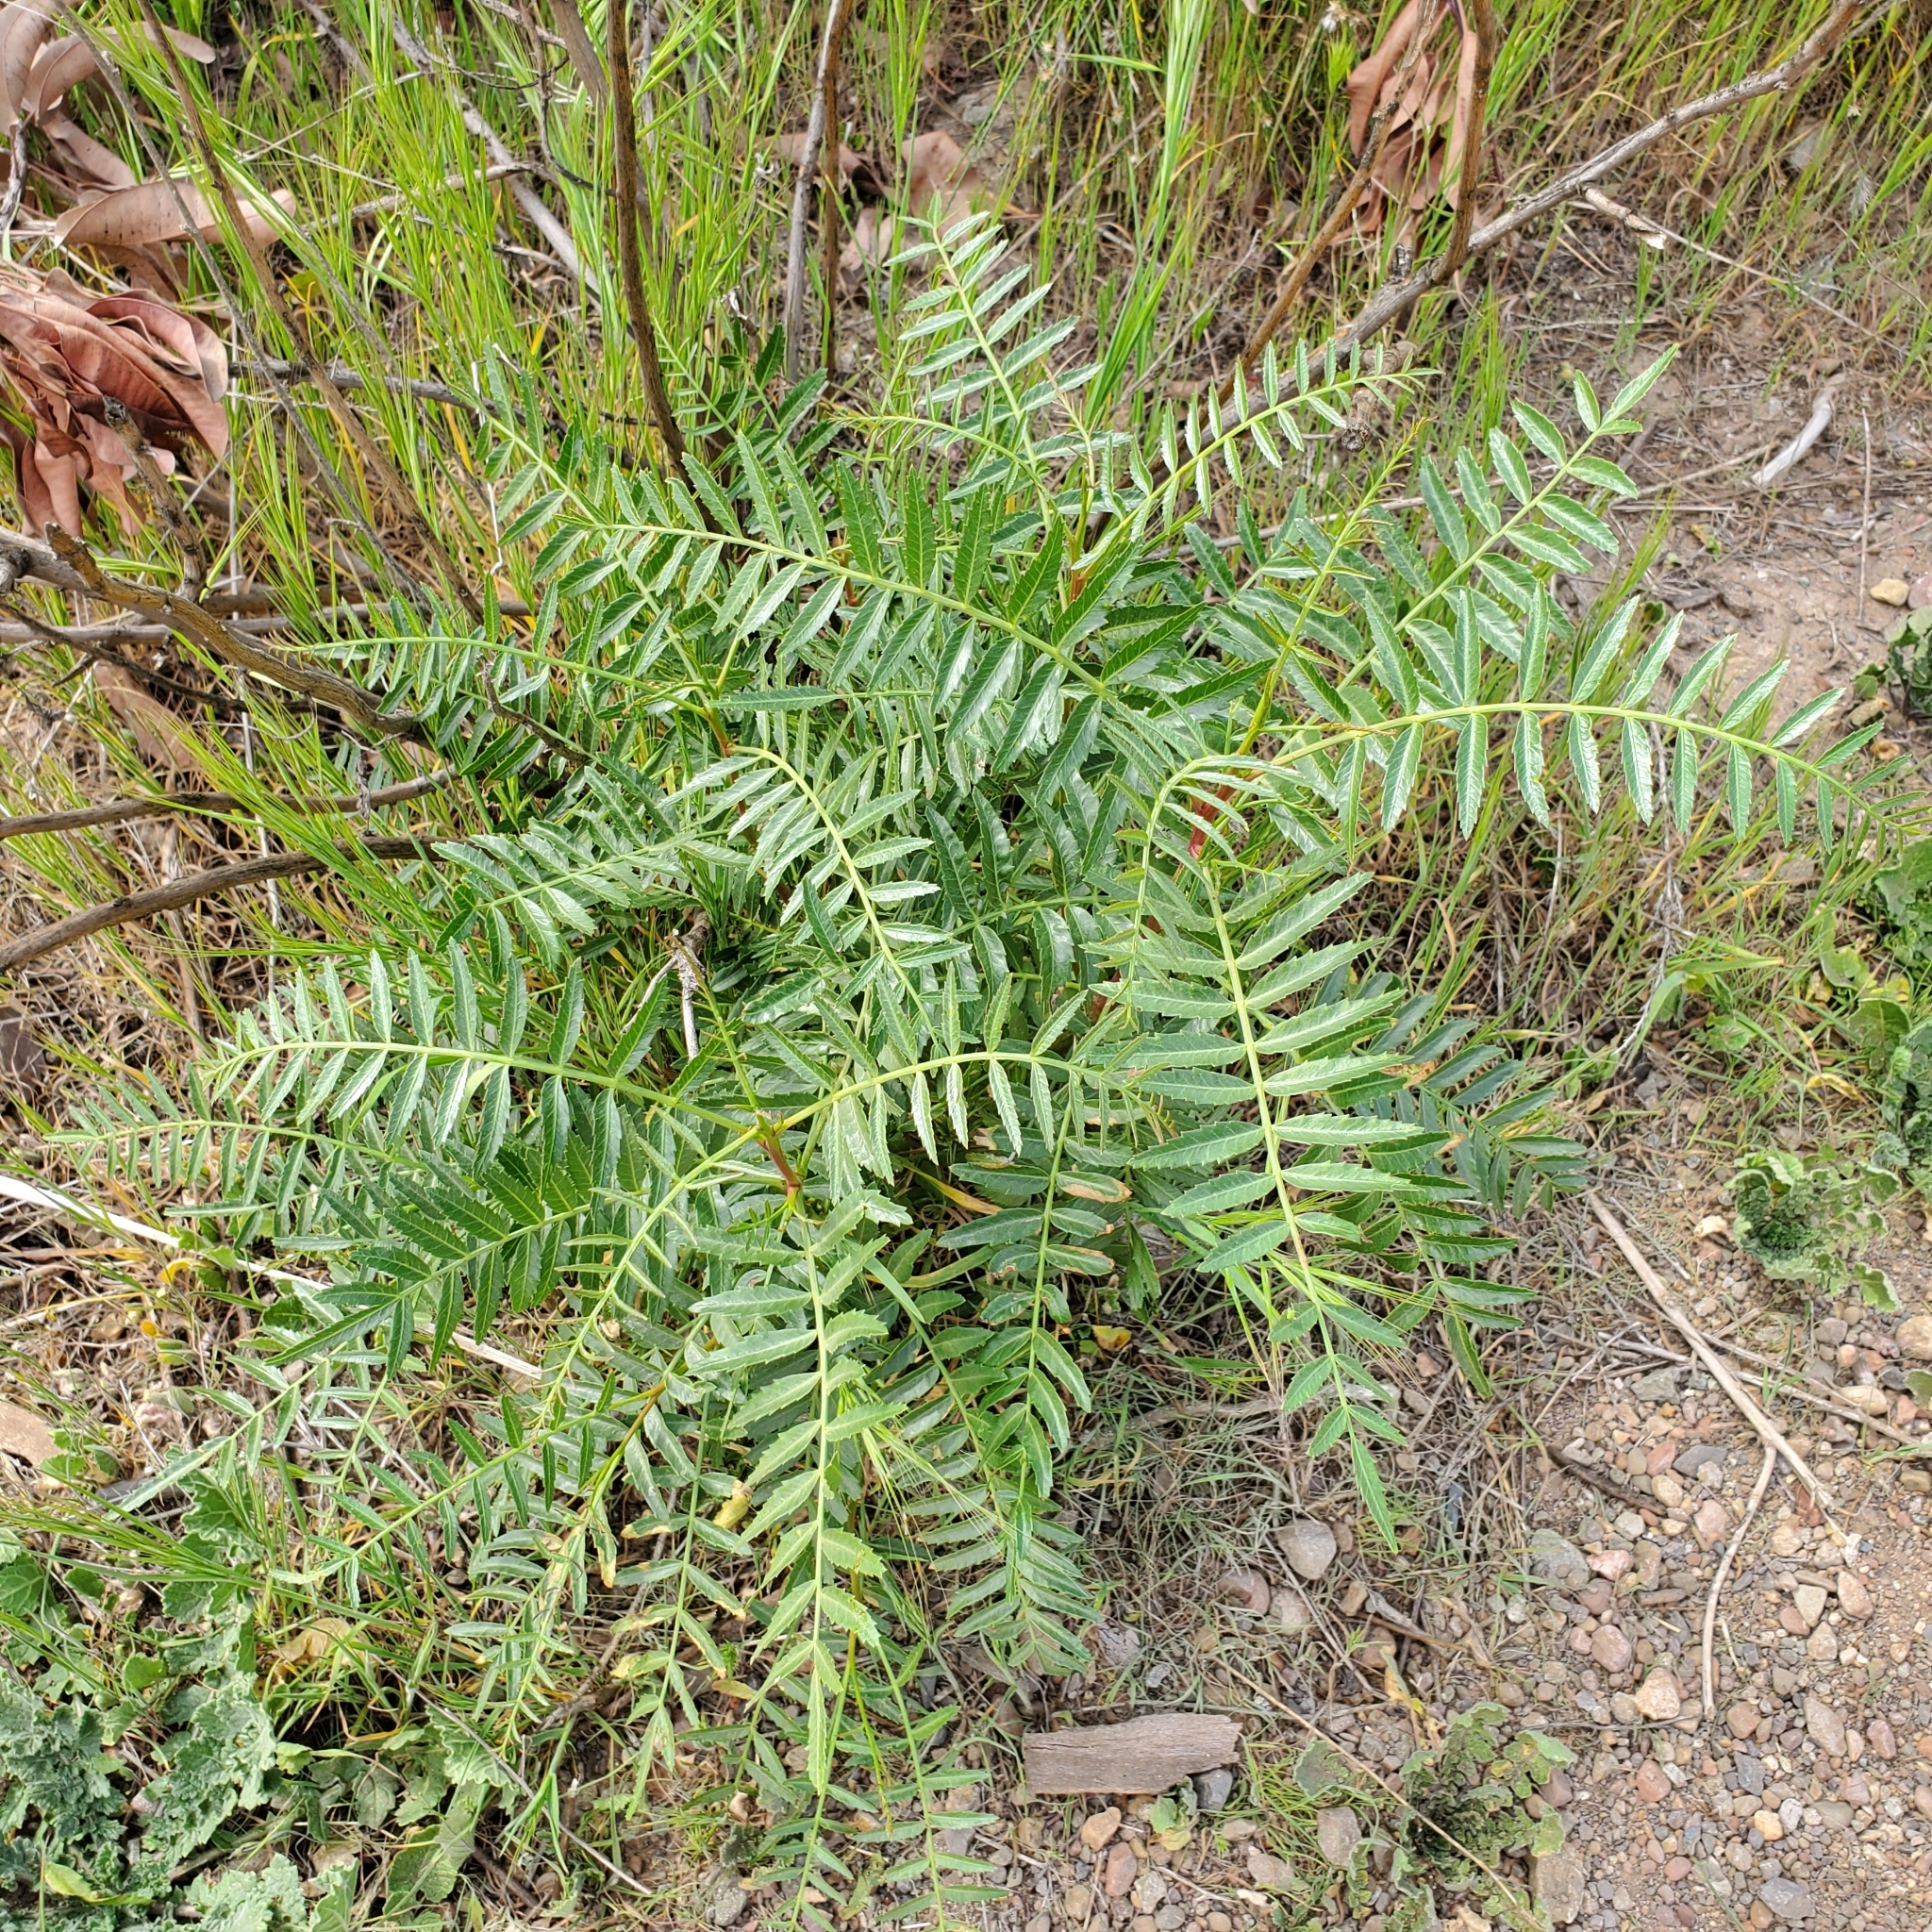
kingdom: Plantae
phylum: Tracheophyta
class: Magnoliopsida
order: Sapindales
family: Anacardiaceae
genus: Schinus
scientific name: Schinus molle
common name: Peruvian peppertree
